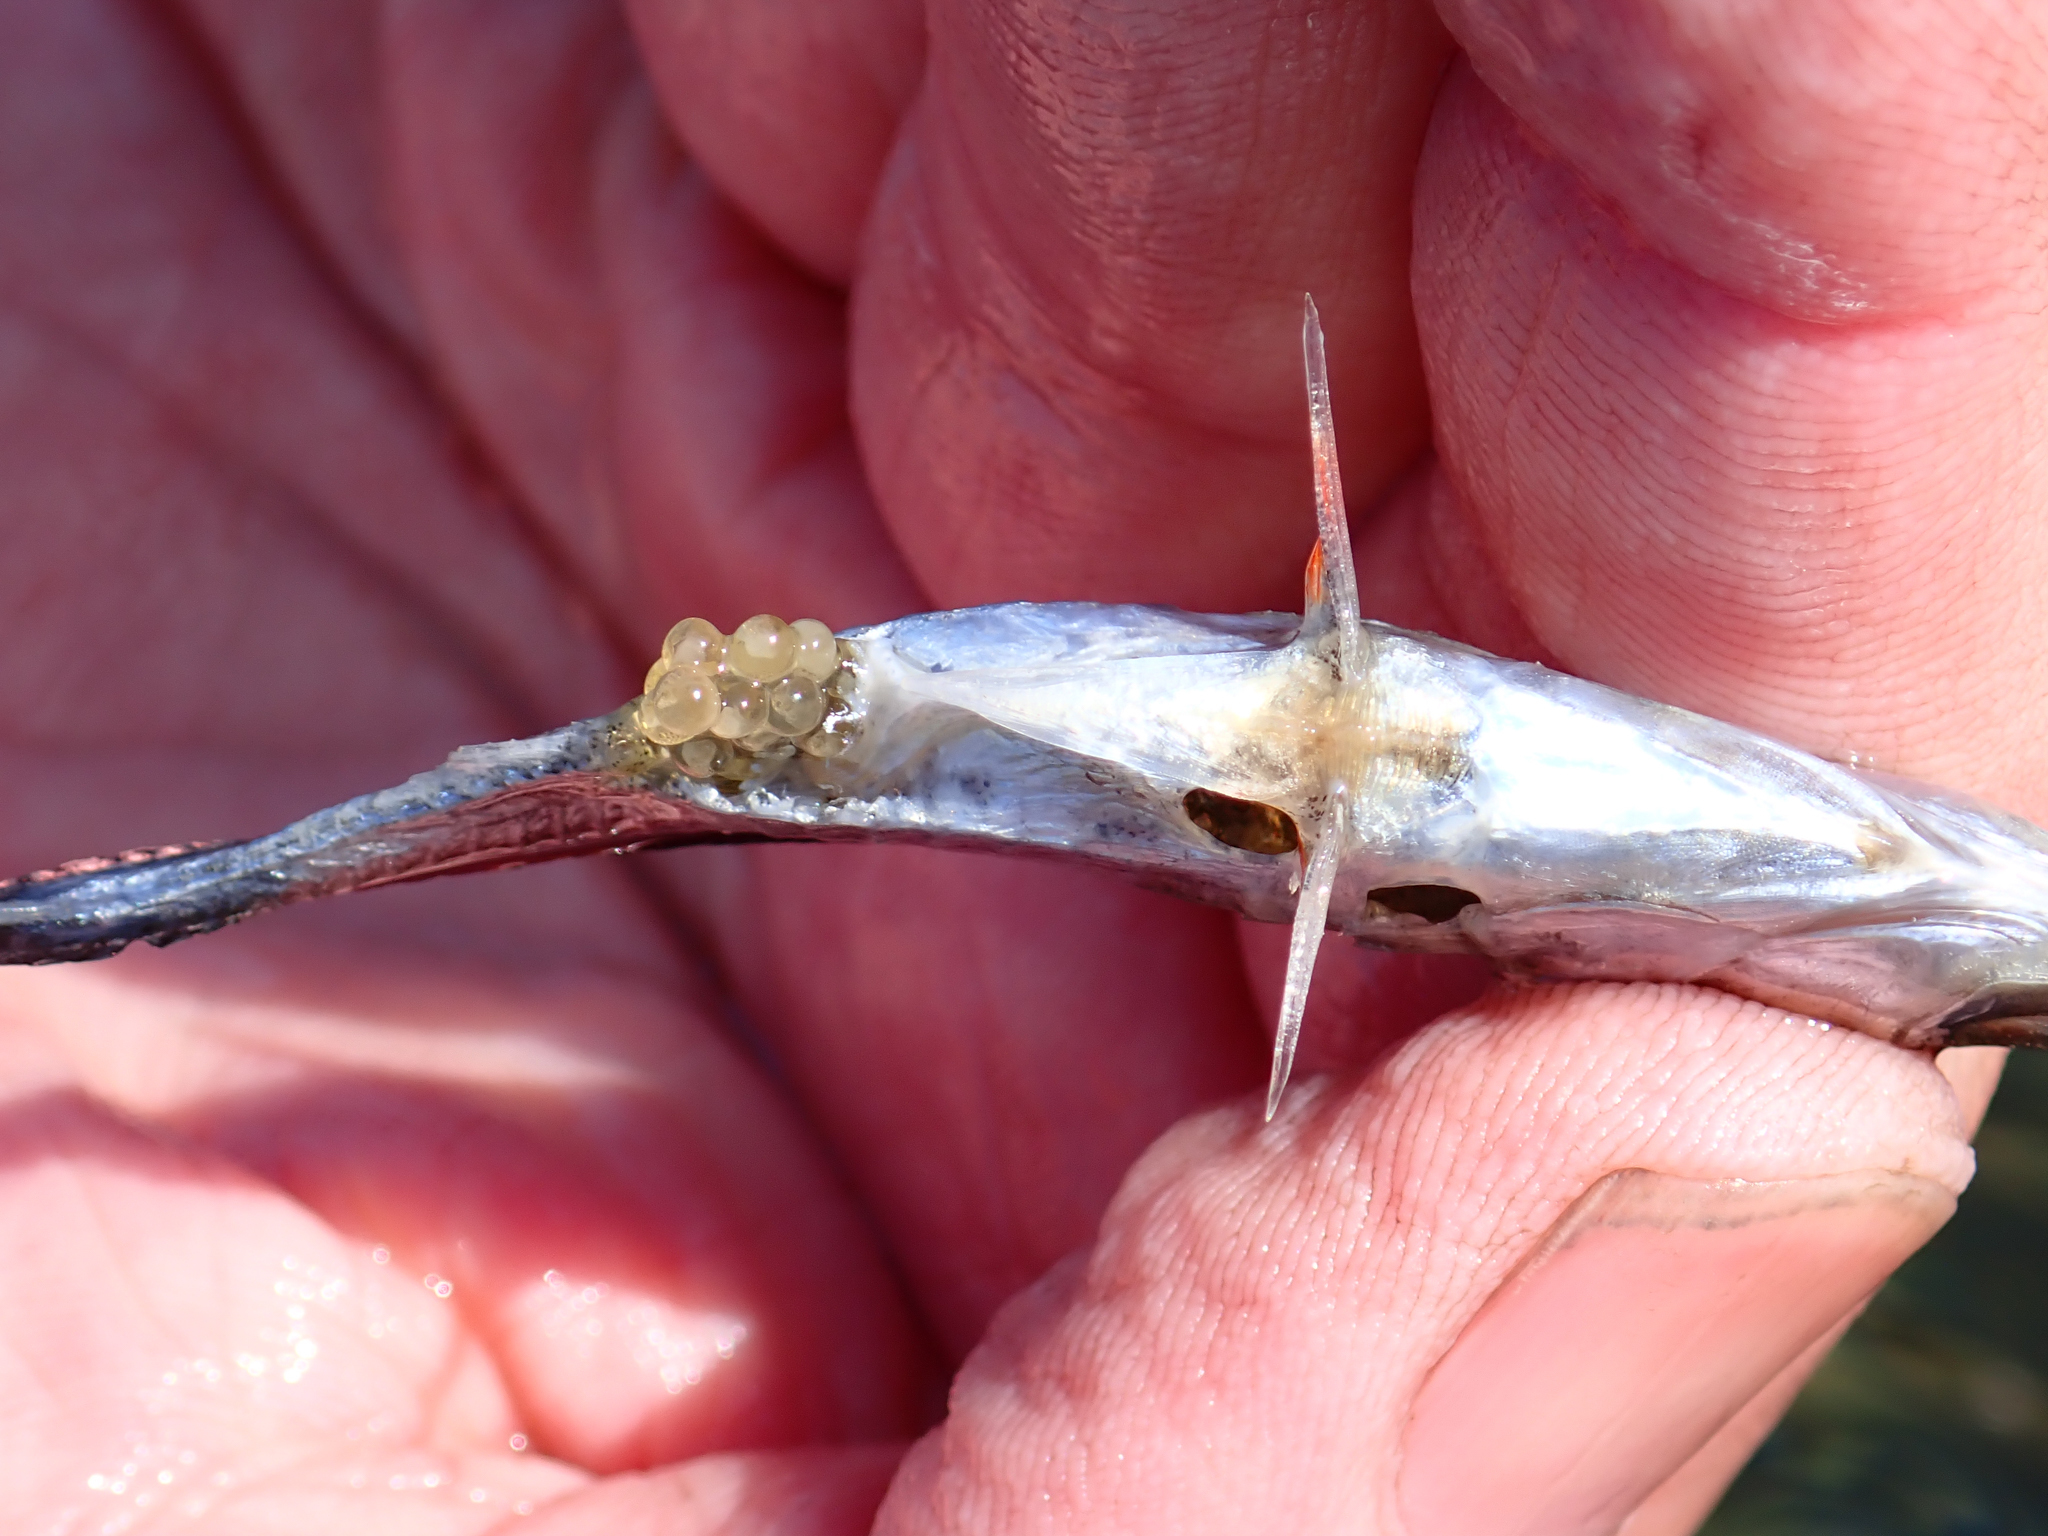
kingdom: Animalia
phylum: Chordata
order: Gasterosteiformes
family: Gasterosteidae
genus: Gasterosteus
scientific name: Gasterosteus aculeatus
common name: Three-spined stickleback
